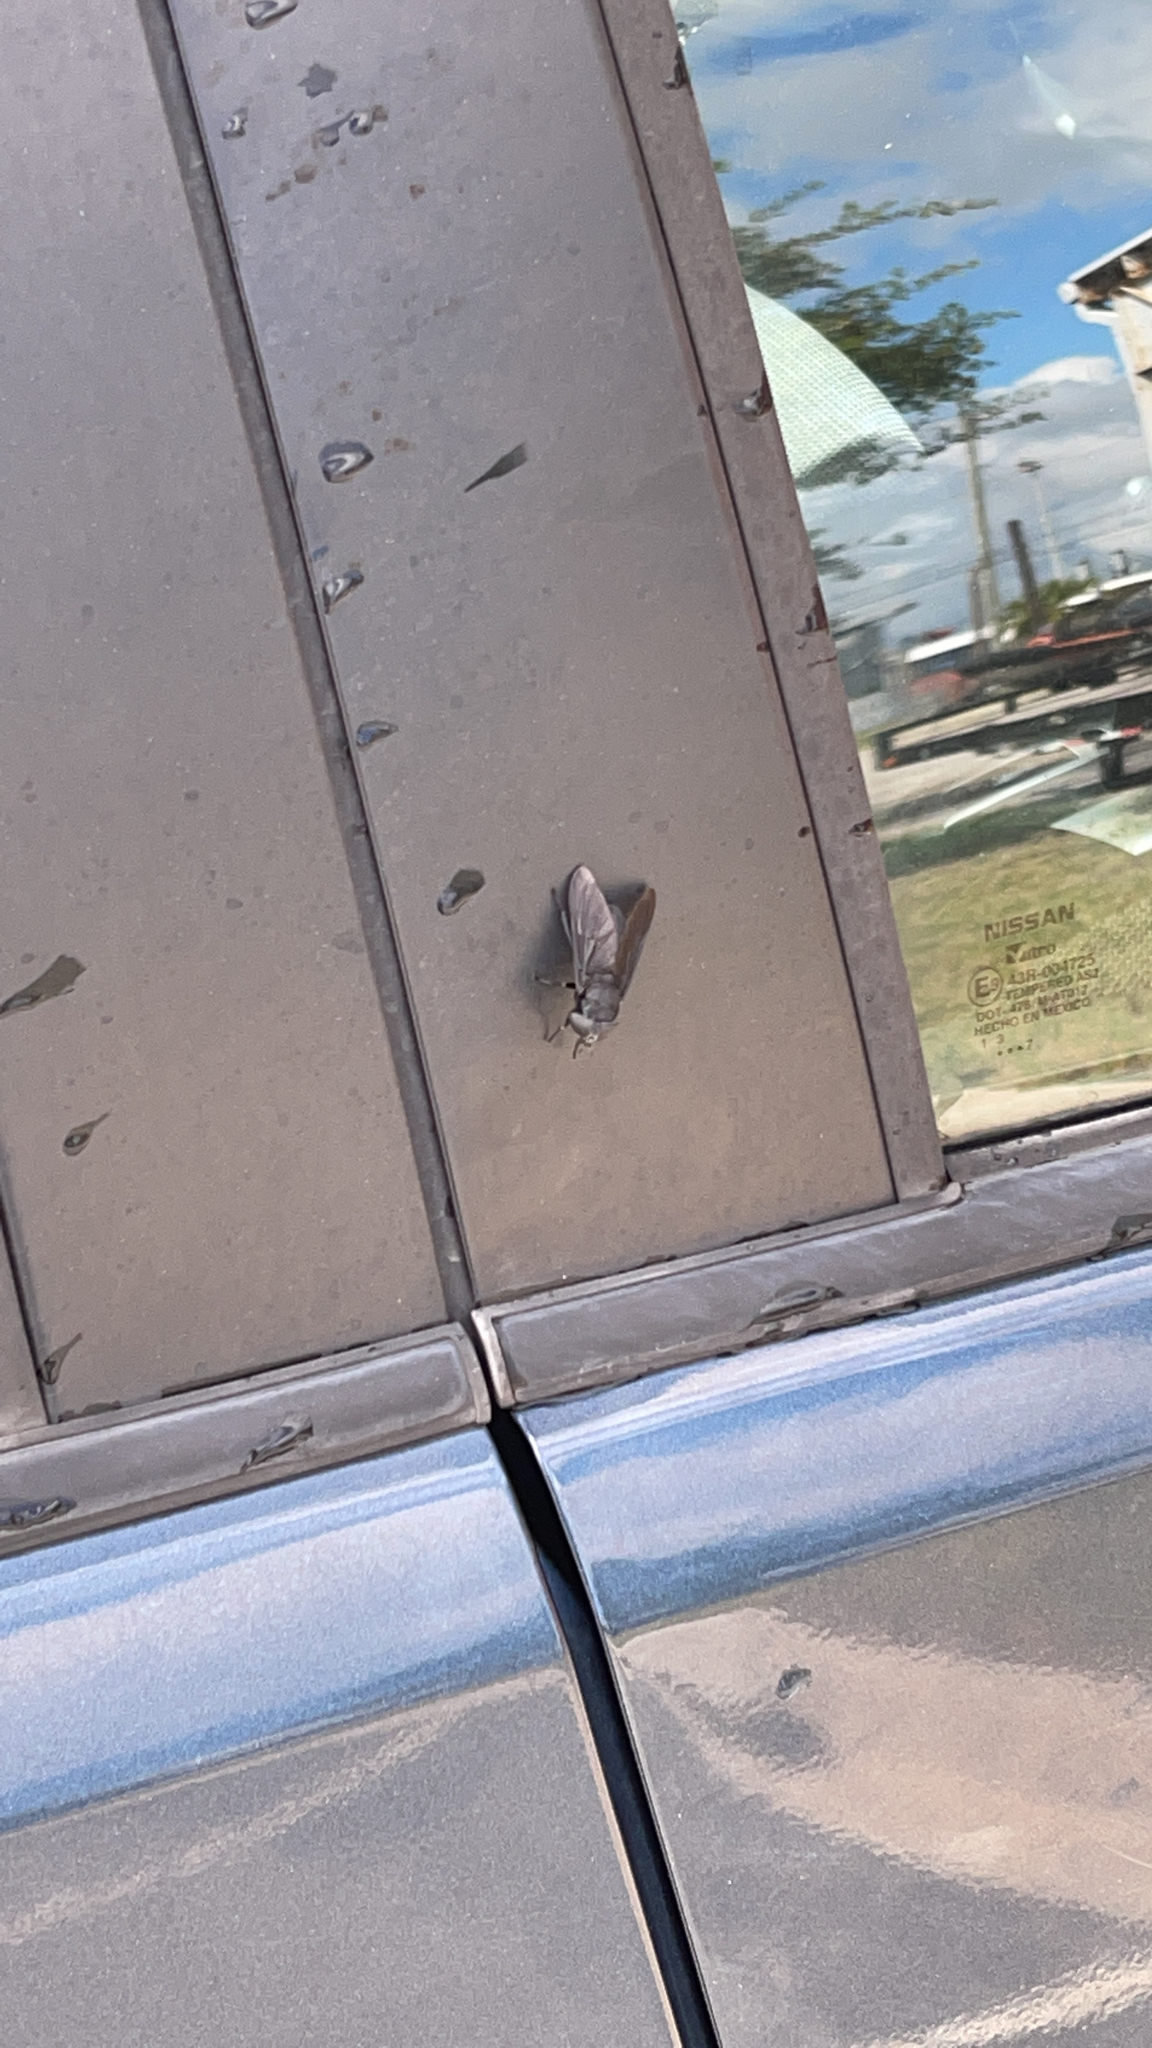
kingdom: Animalia
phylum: Arthropoda
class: Insecta
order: Diptera
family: Tabanidae
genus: Tabanus
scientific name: Tabanus atratus
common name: Black horse fly
